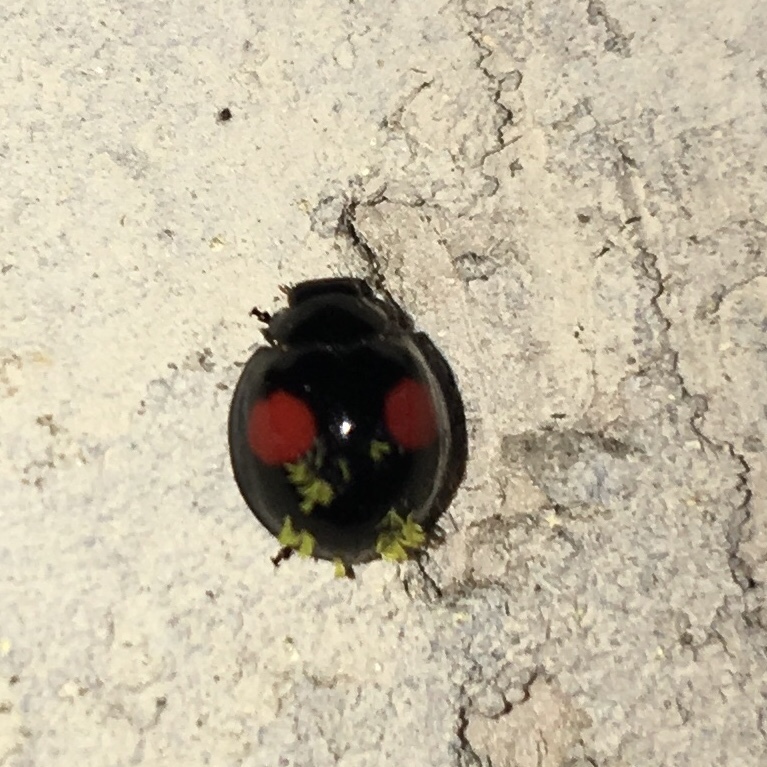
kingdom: Animalia
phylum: Arthropoda
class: Insecta
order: Coleoptera
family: Coccinellidae
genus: Chilocorus
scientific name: Chilocorus cacti
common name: Cactus lady beetle
